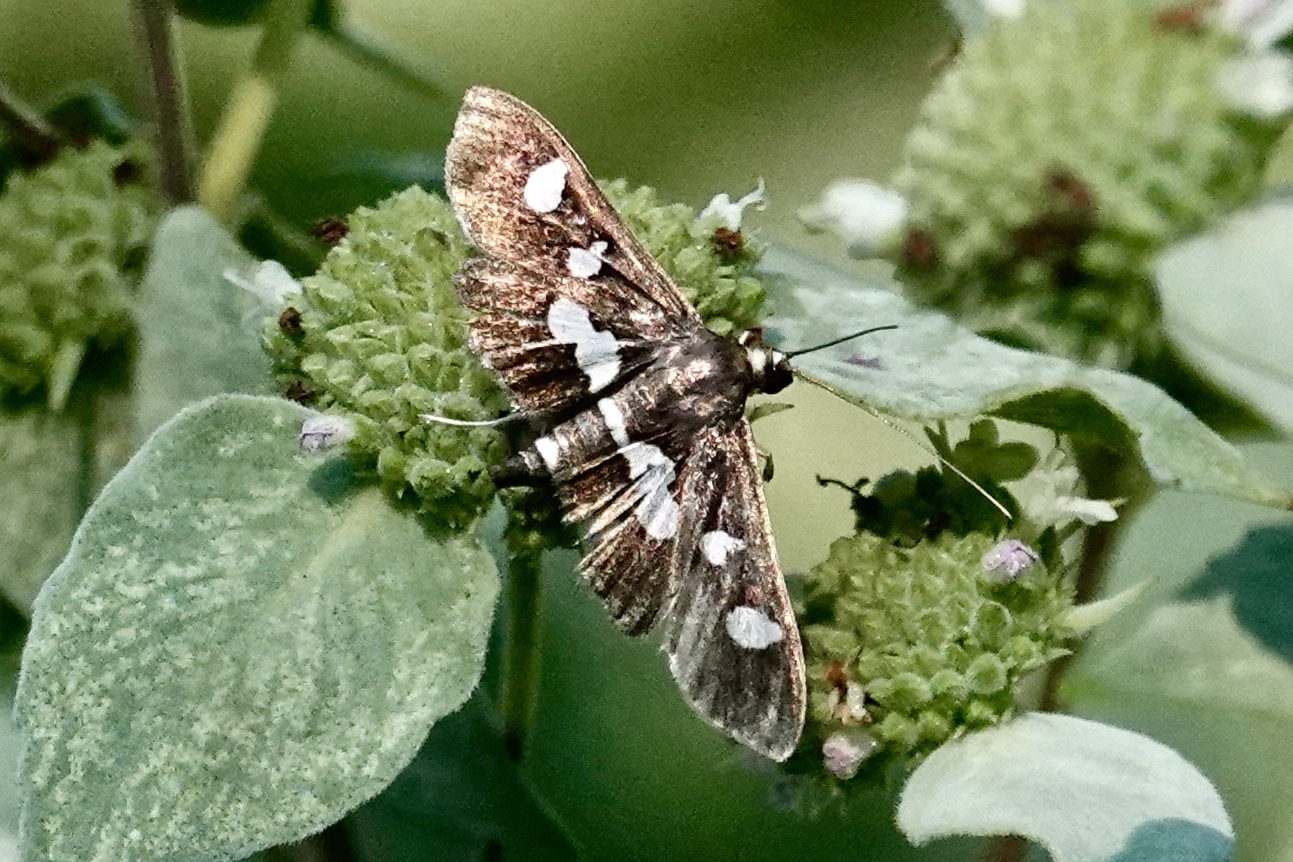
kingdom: Animalia
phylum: Arthropoda
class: Insecta
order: Lepidoptera
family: Crambidae
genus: Desmia
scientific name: Desmia
